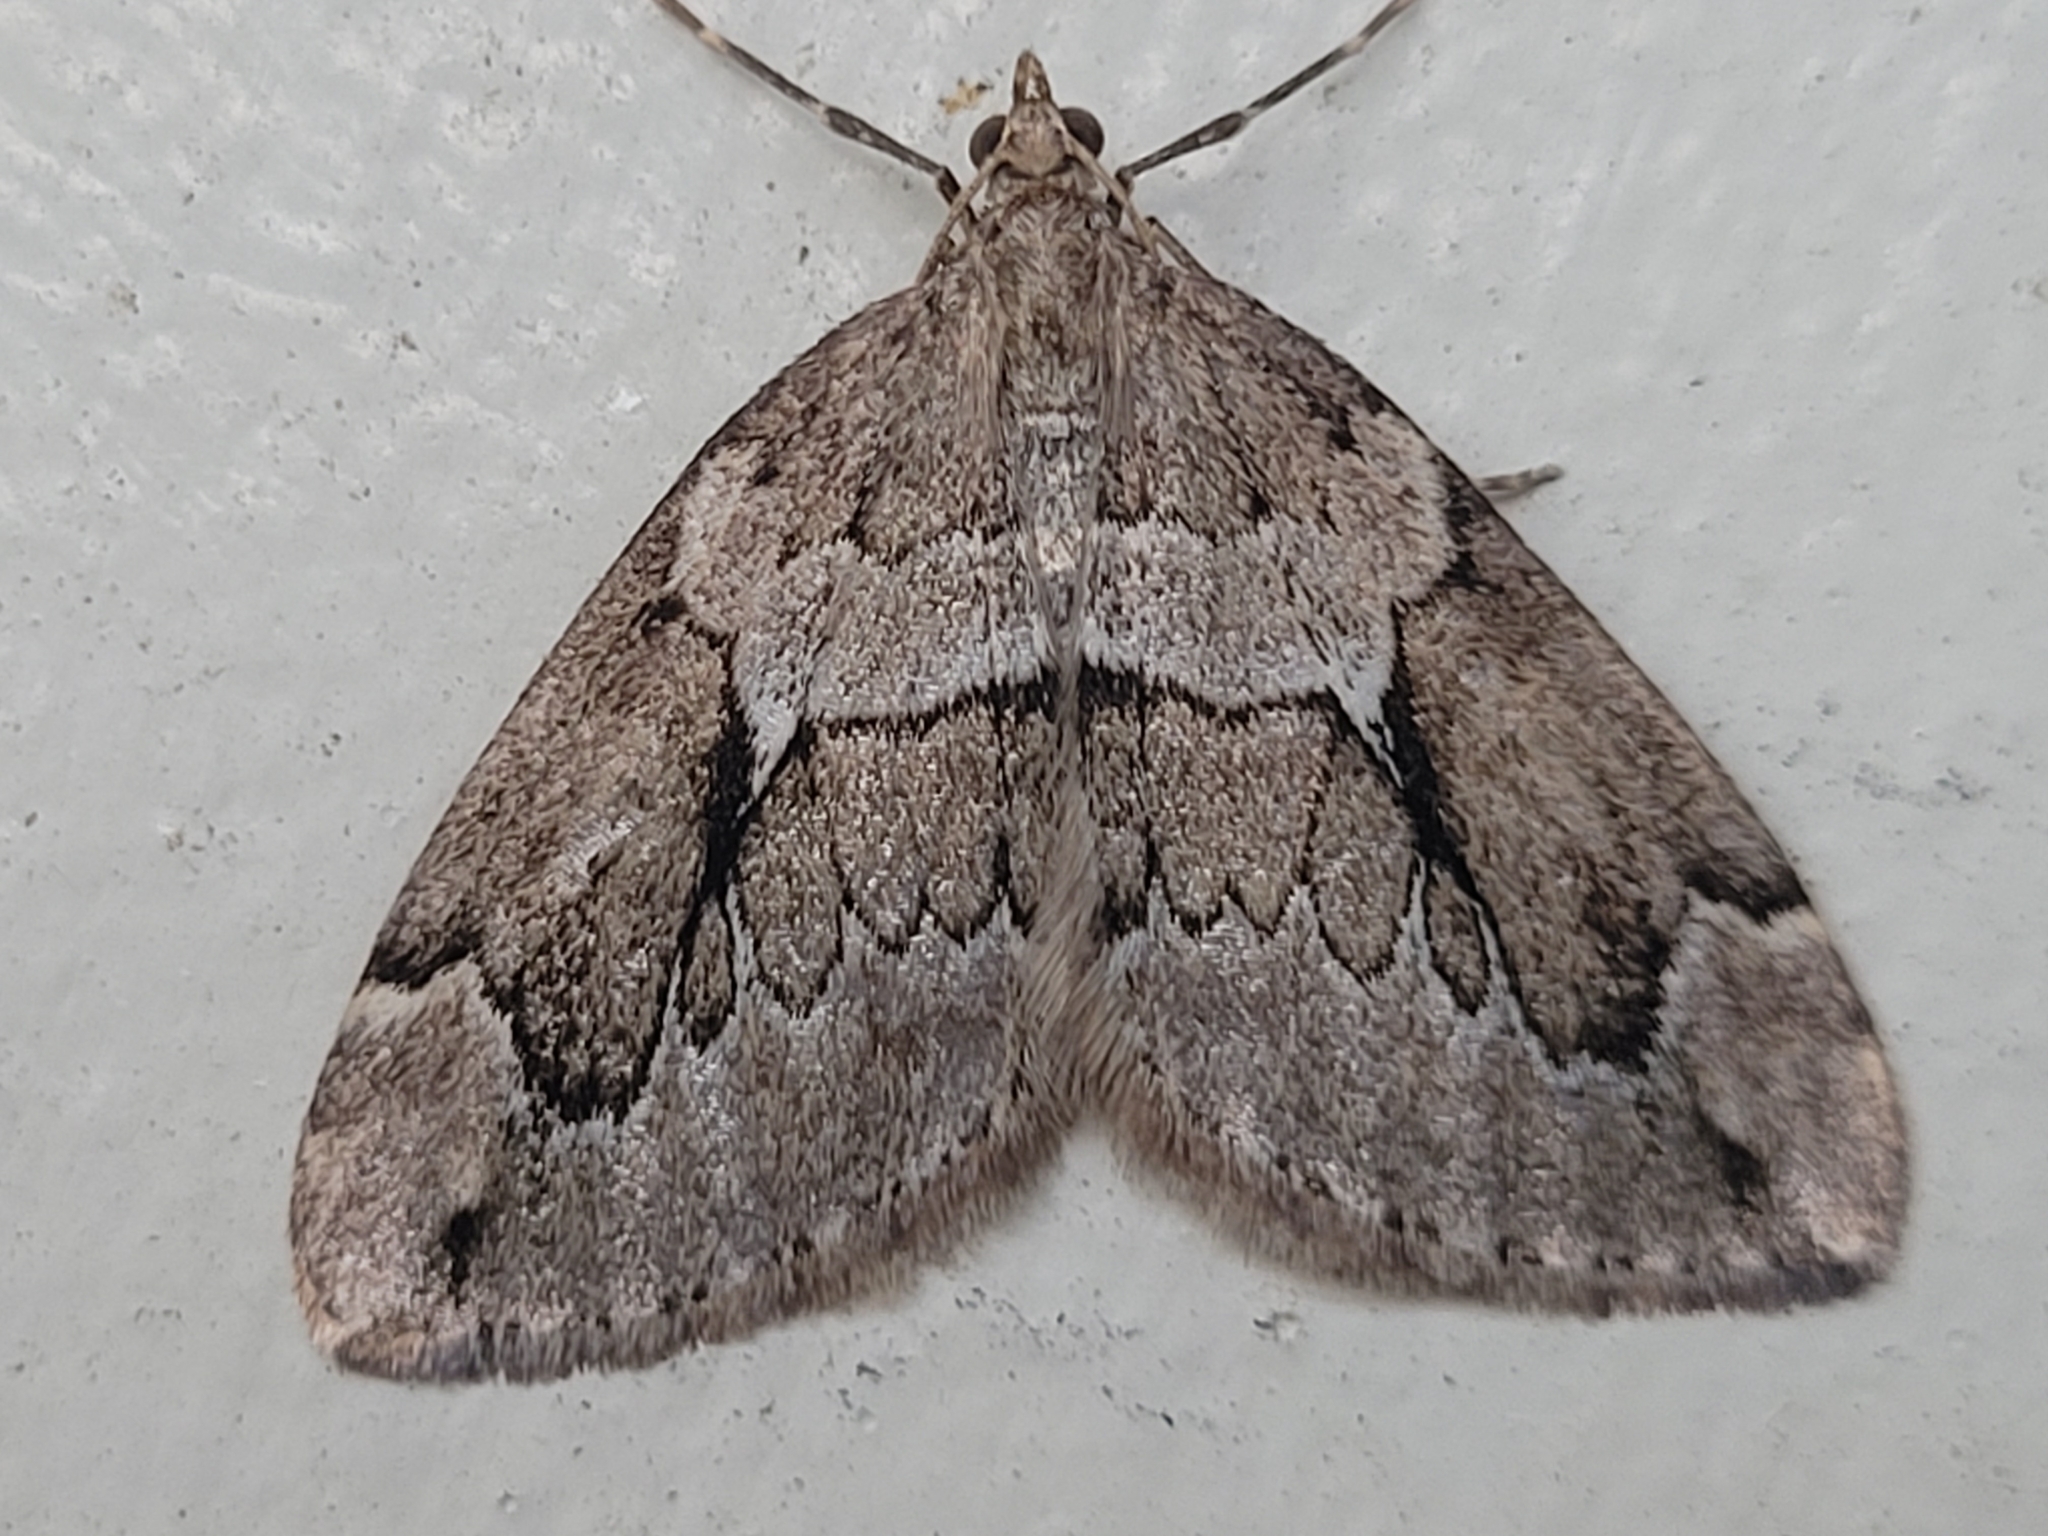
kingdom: Animalia
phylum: Arthropoda
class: Insecta
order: Lepidoptera
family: Geometridae
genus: Thera
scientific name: Thera juniperata
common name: Juniper carpet
